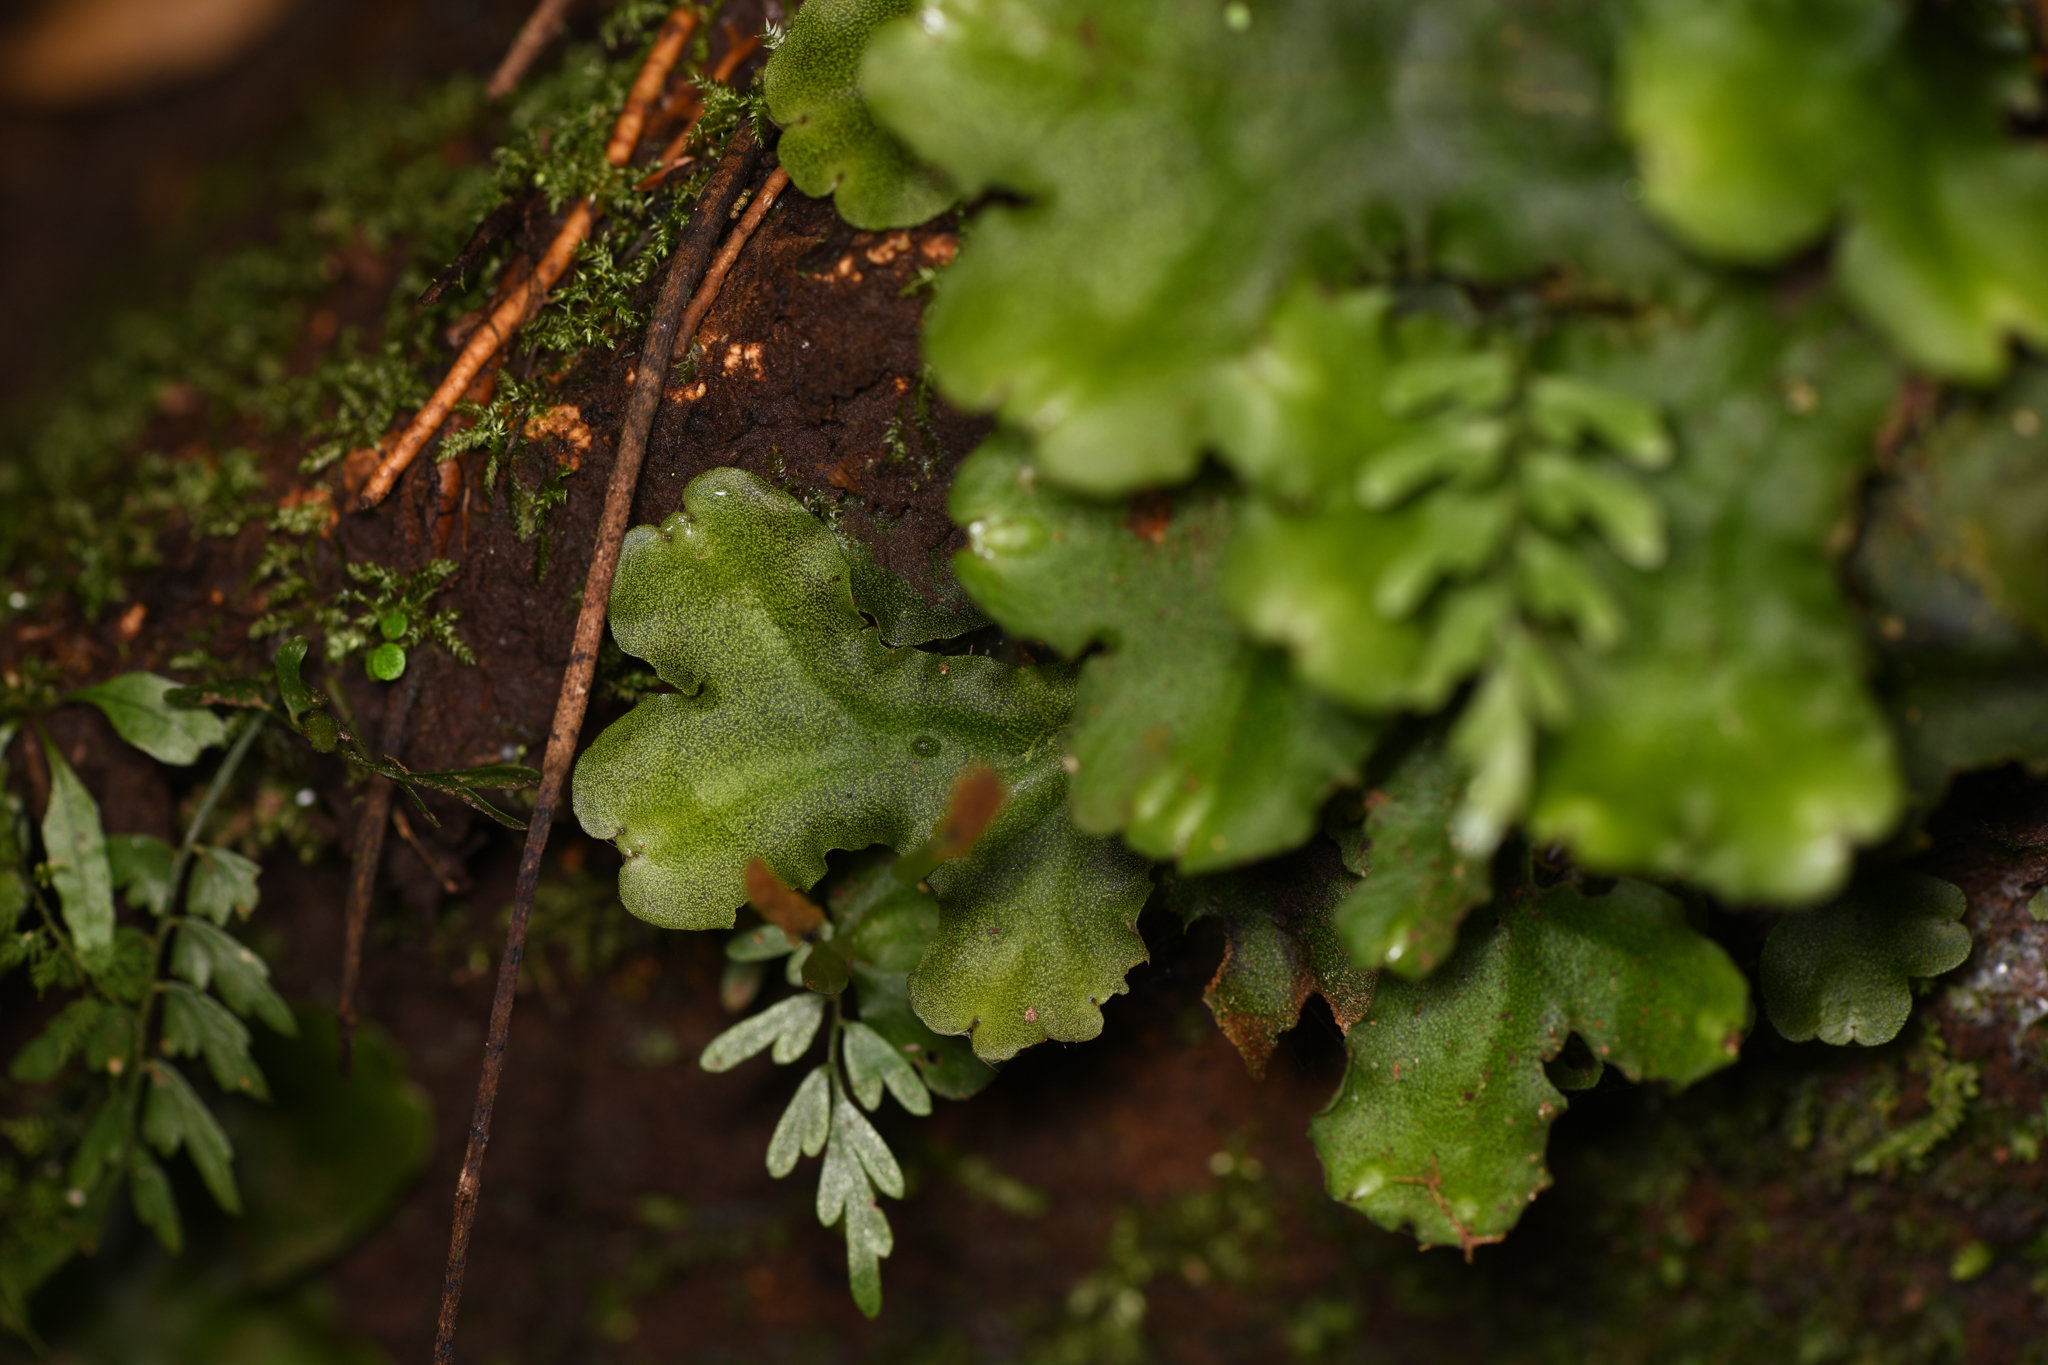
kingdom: Plantae
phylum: Marchantiophyta
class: Marchantiopsida
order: Marchantiales
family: Monocleaceae
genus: Monoclea
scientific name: Monoclea gottschei
